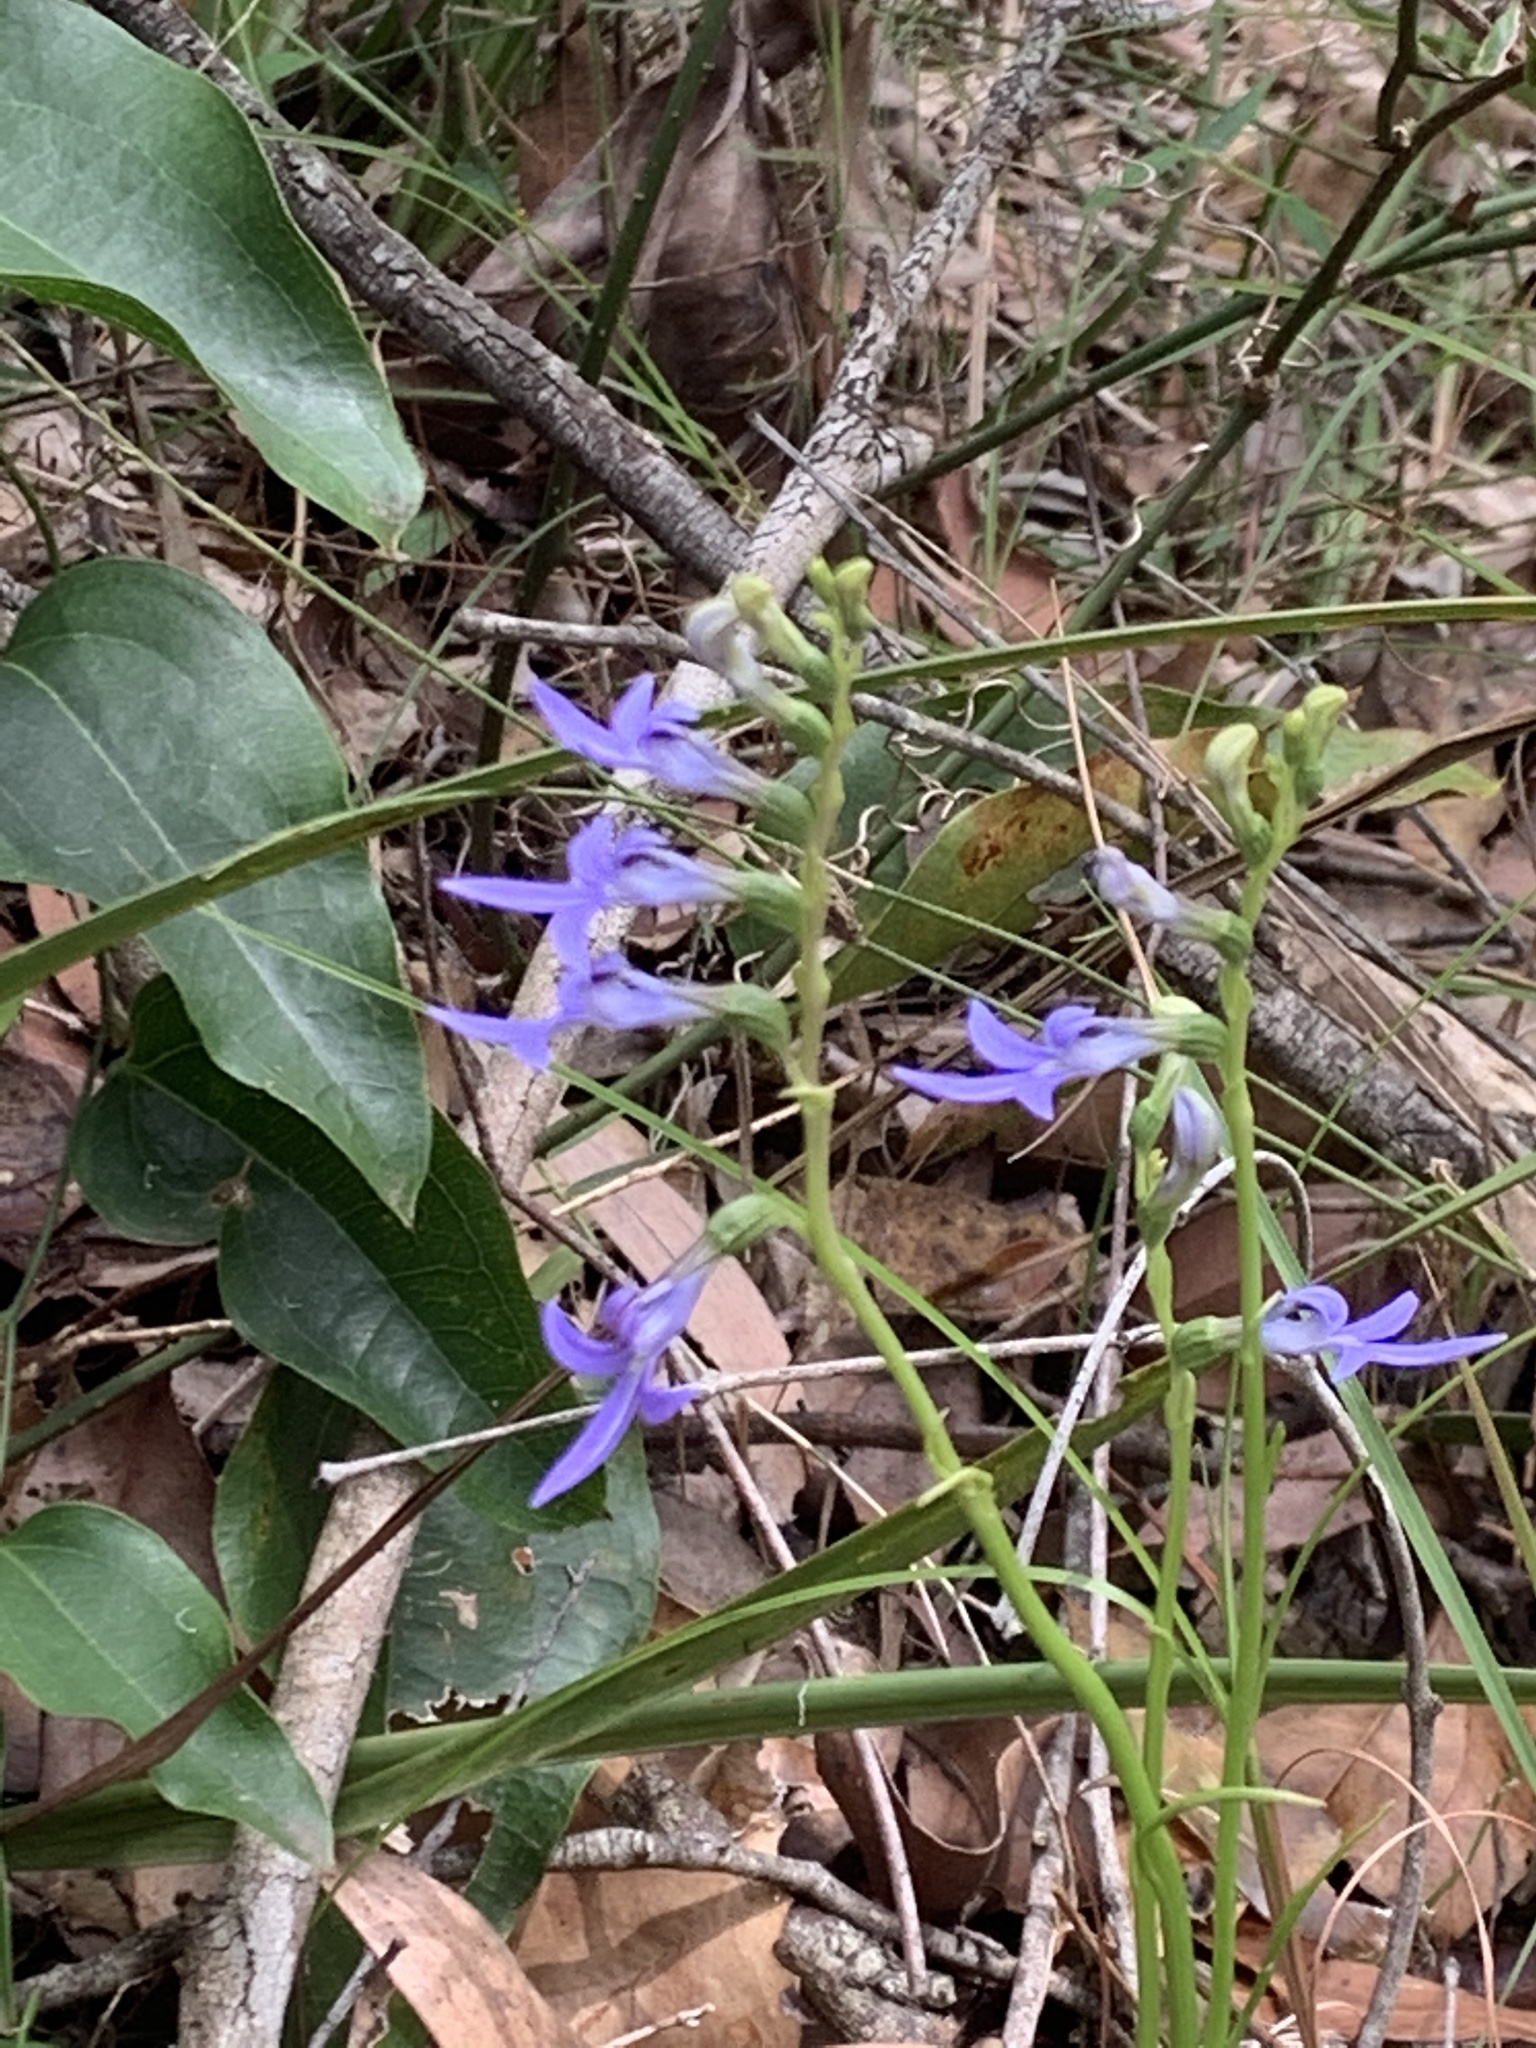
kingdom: Plantae
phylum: Tracheophyta
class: Magnoliopsida
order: Asterales
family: Campanulaceae
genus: Lobelia
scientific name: Lobelia gibbosa
